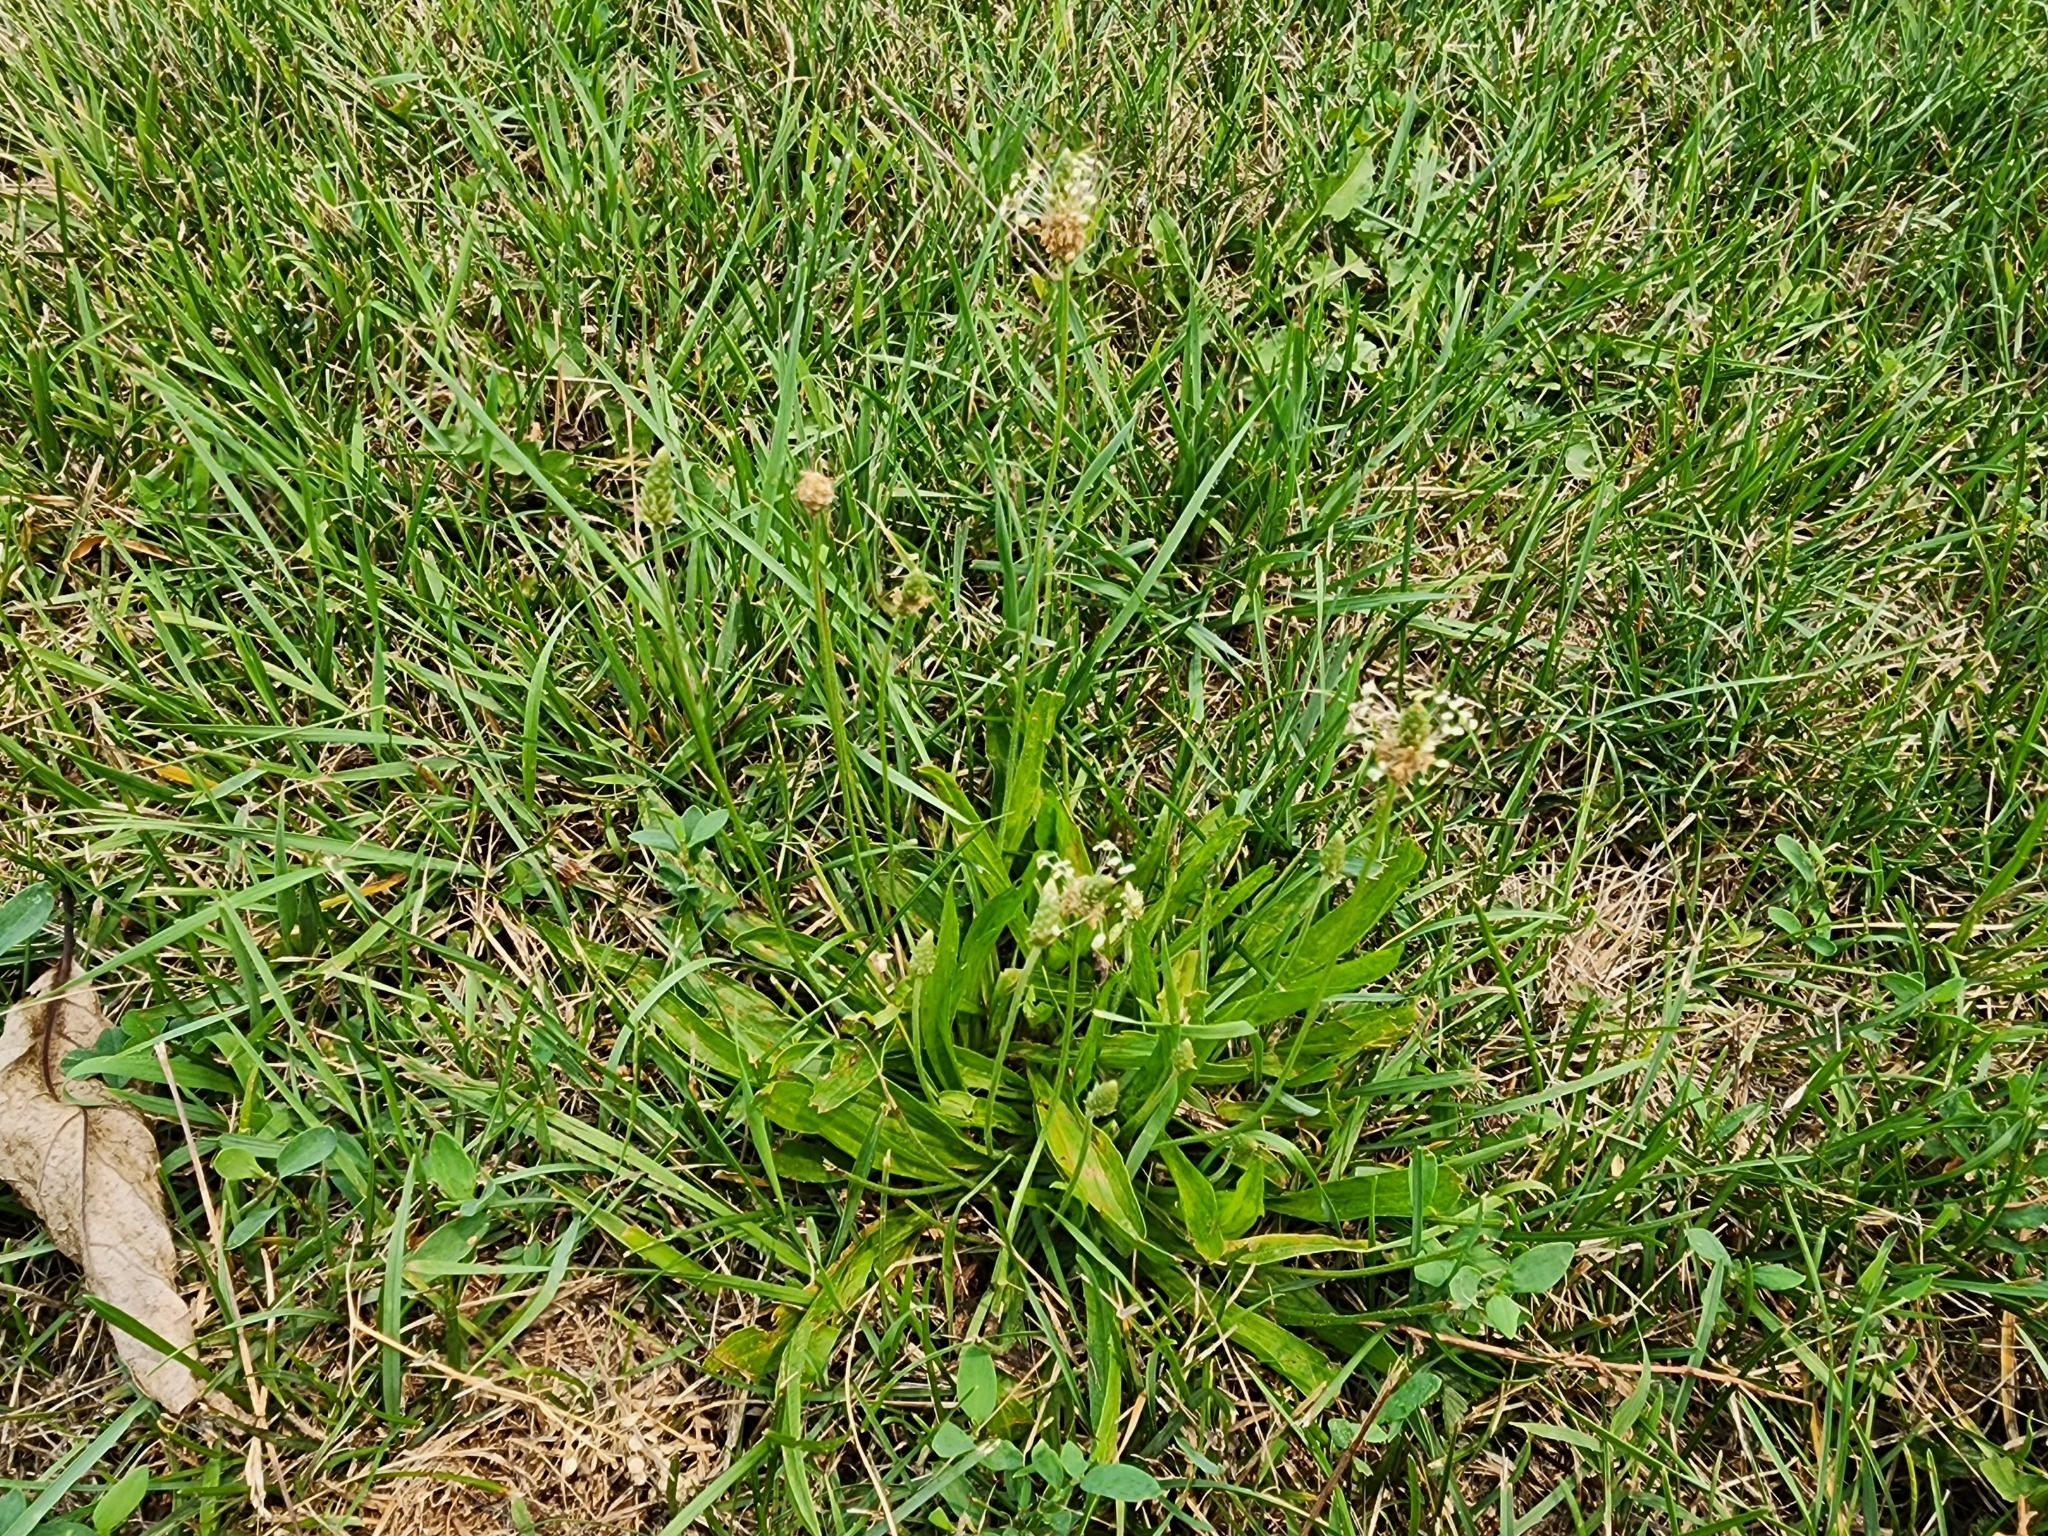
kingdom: Plantae
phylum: Tracheophyta
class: Magnoliopsida
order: Lamiales
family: Plantaginaceae
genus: Plantago
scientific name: Plantago lanceolata
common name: Ribwort plantain
